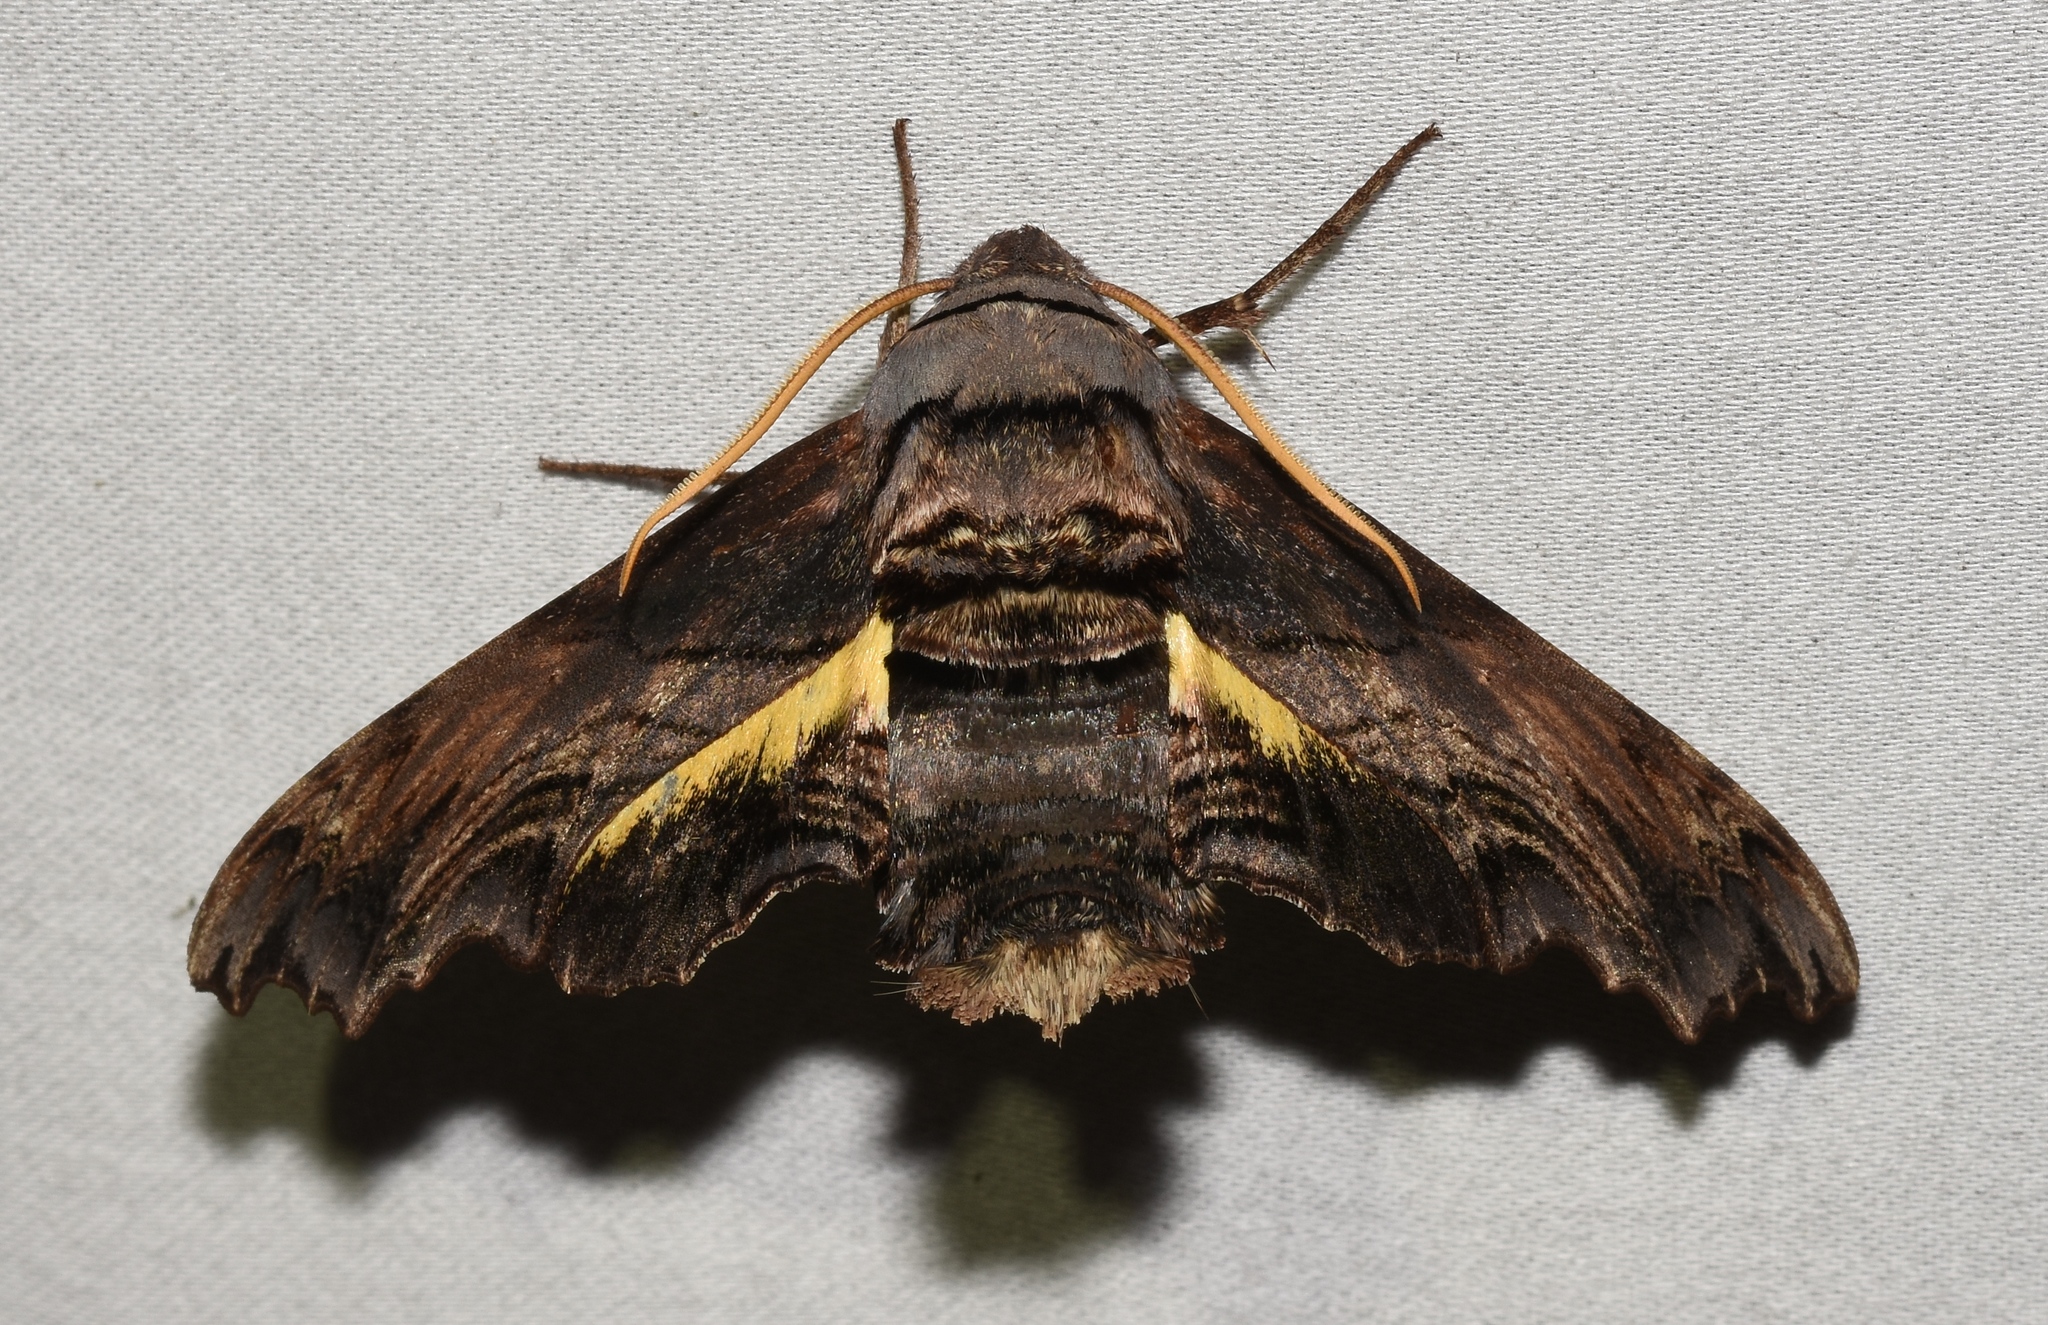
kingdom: Animalia
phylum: Arthropoda
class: Insecta
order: Lepidoptera
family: Sphingidae
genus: Sphecodina
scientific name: Sphecodina abbottii
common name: Abbott's sphinx
